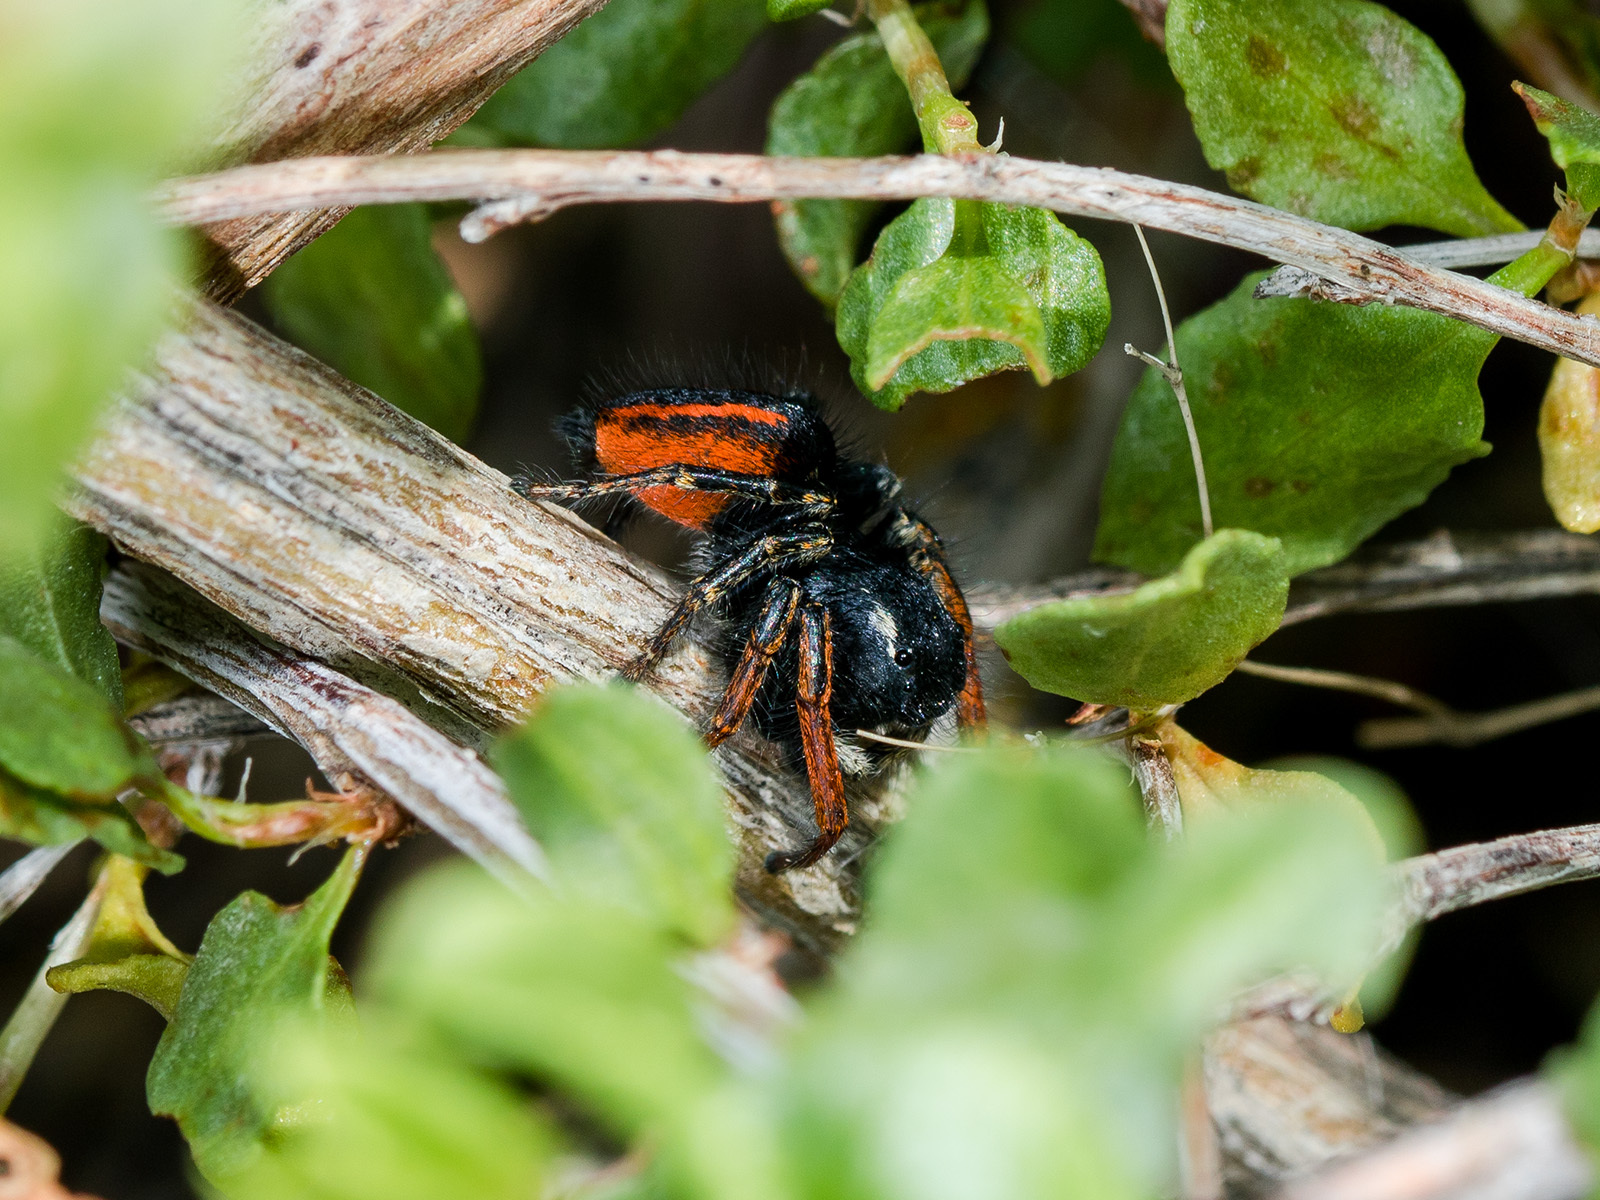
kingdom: Animalia
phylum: Arthropoda
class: Arachnida
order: Araneae
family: Salticidae
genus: Philaeus
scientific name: Philaeus chrysops
